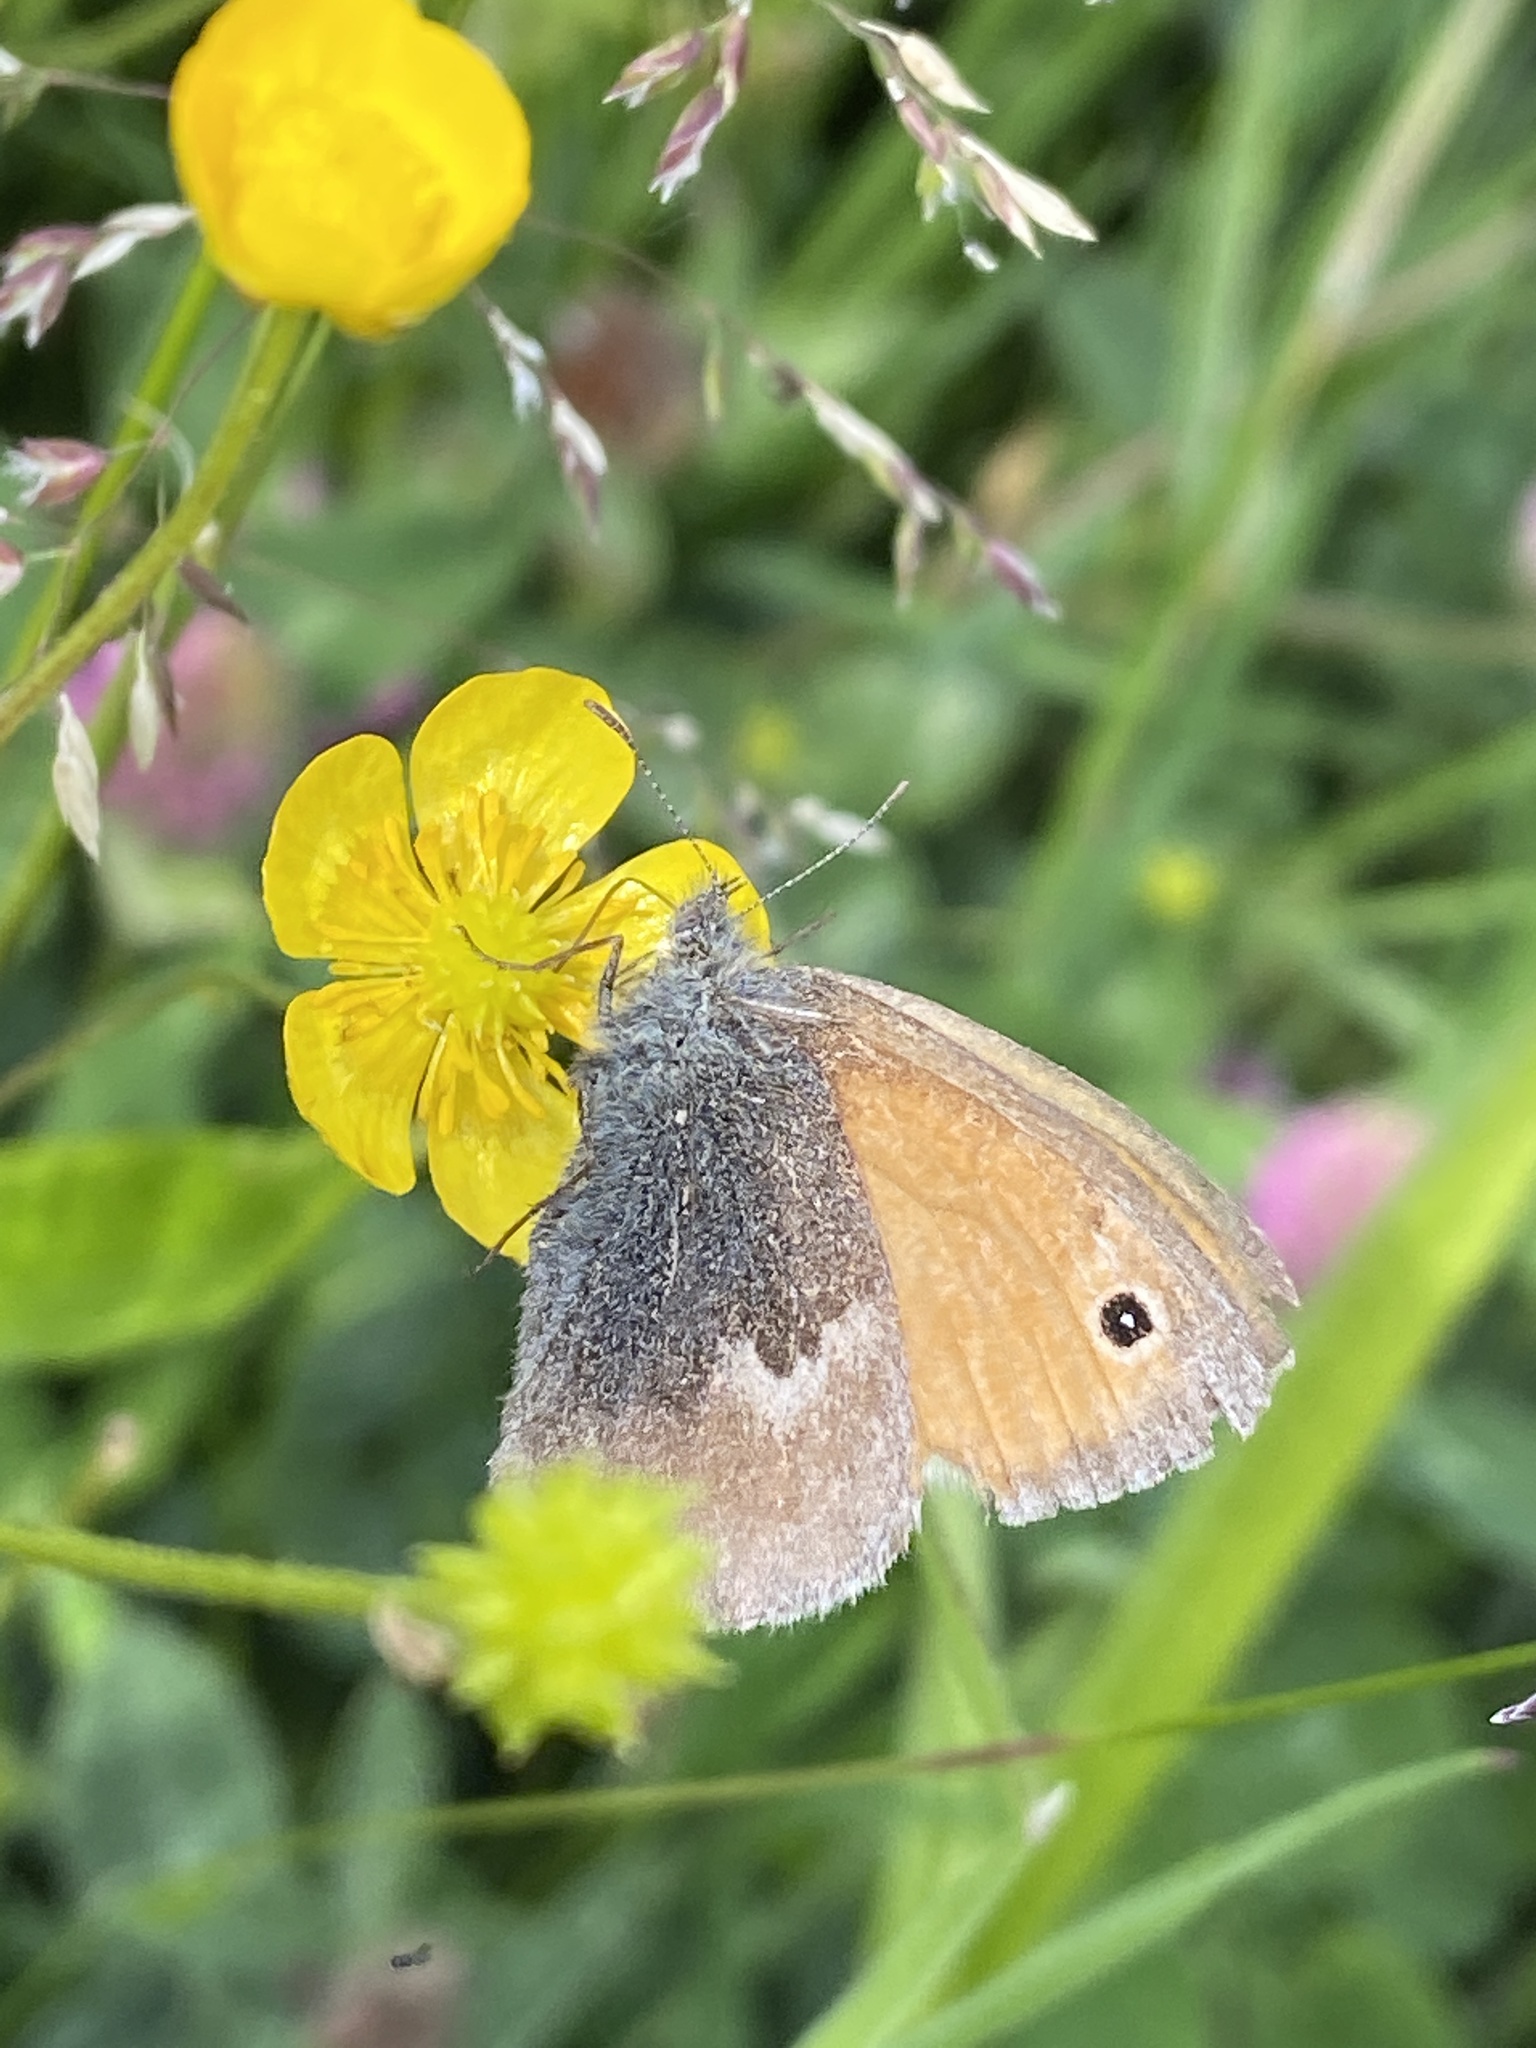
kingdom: Animalia
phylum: Arthropoda
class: Insecta
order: Lepidoptera
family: Nymphalidae
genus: Coenonympha
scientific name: Coenonympha pamphilus
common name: Small heath
